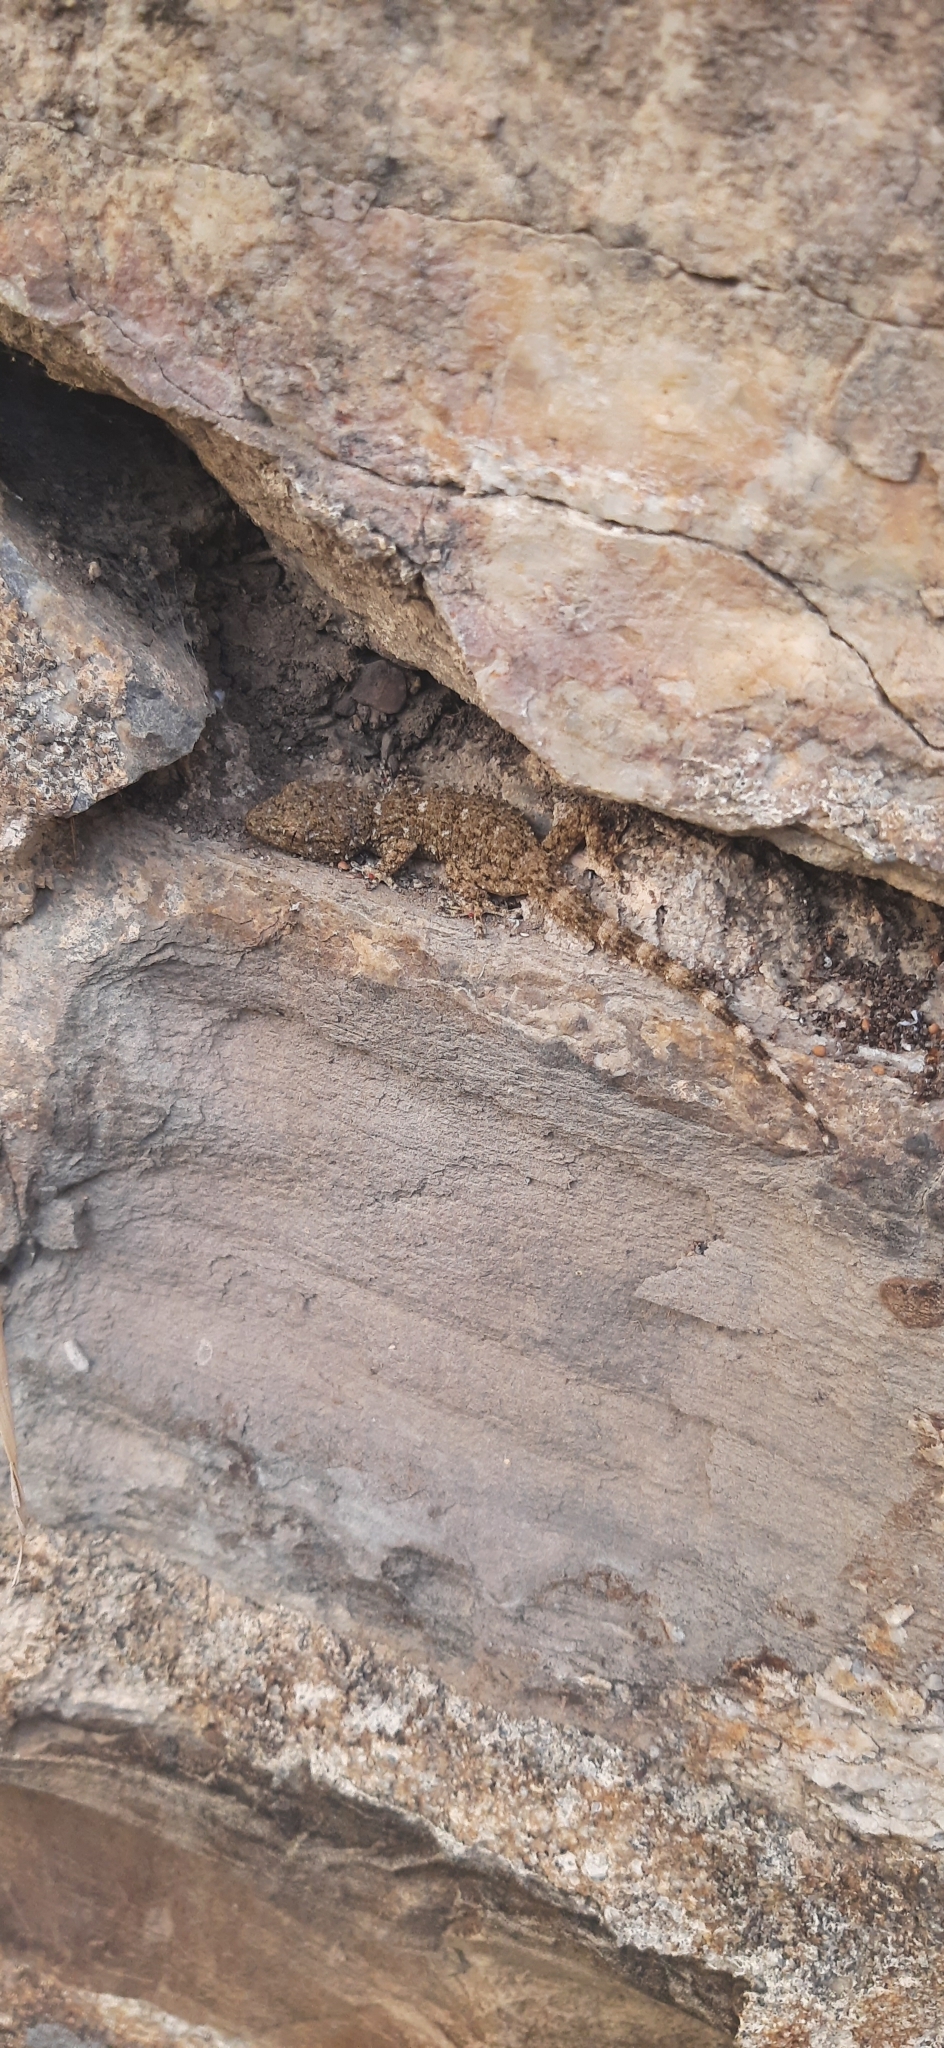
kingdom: Animalia
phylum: Chordata
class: Squamata
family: Phyllodactylidae
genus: Tarentola
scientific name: Tarentola mauritanica
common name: Moorish gecko
